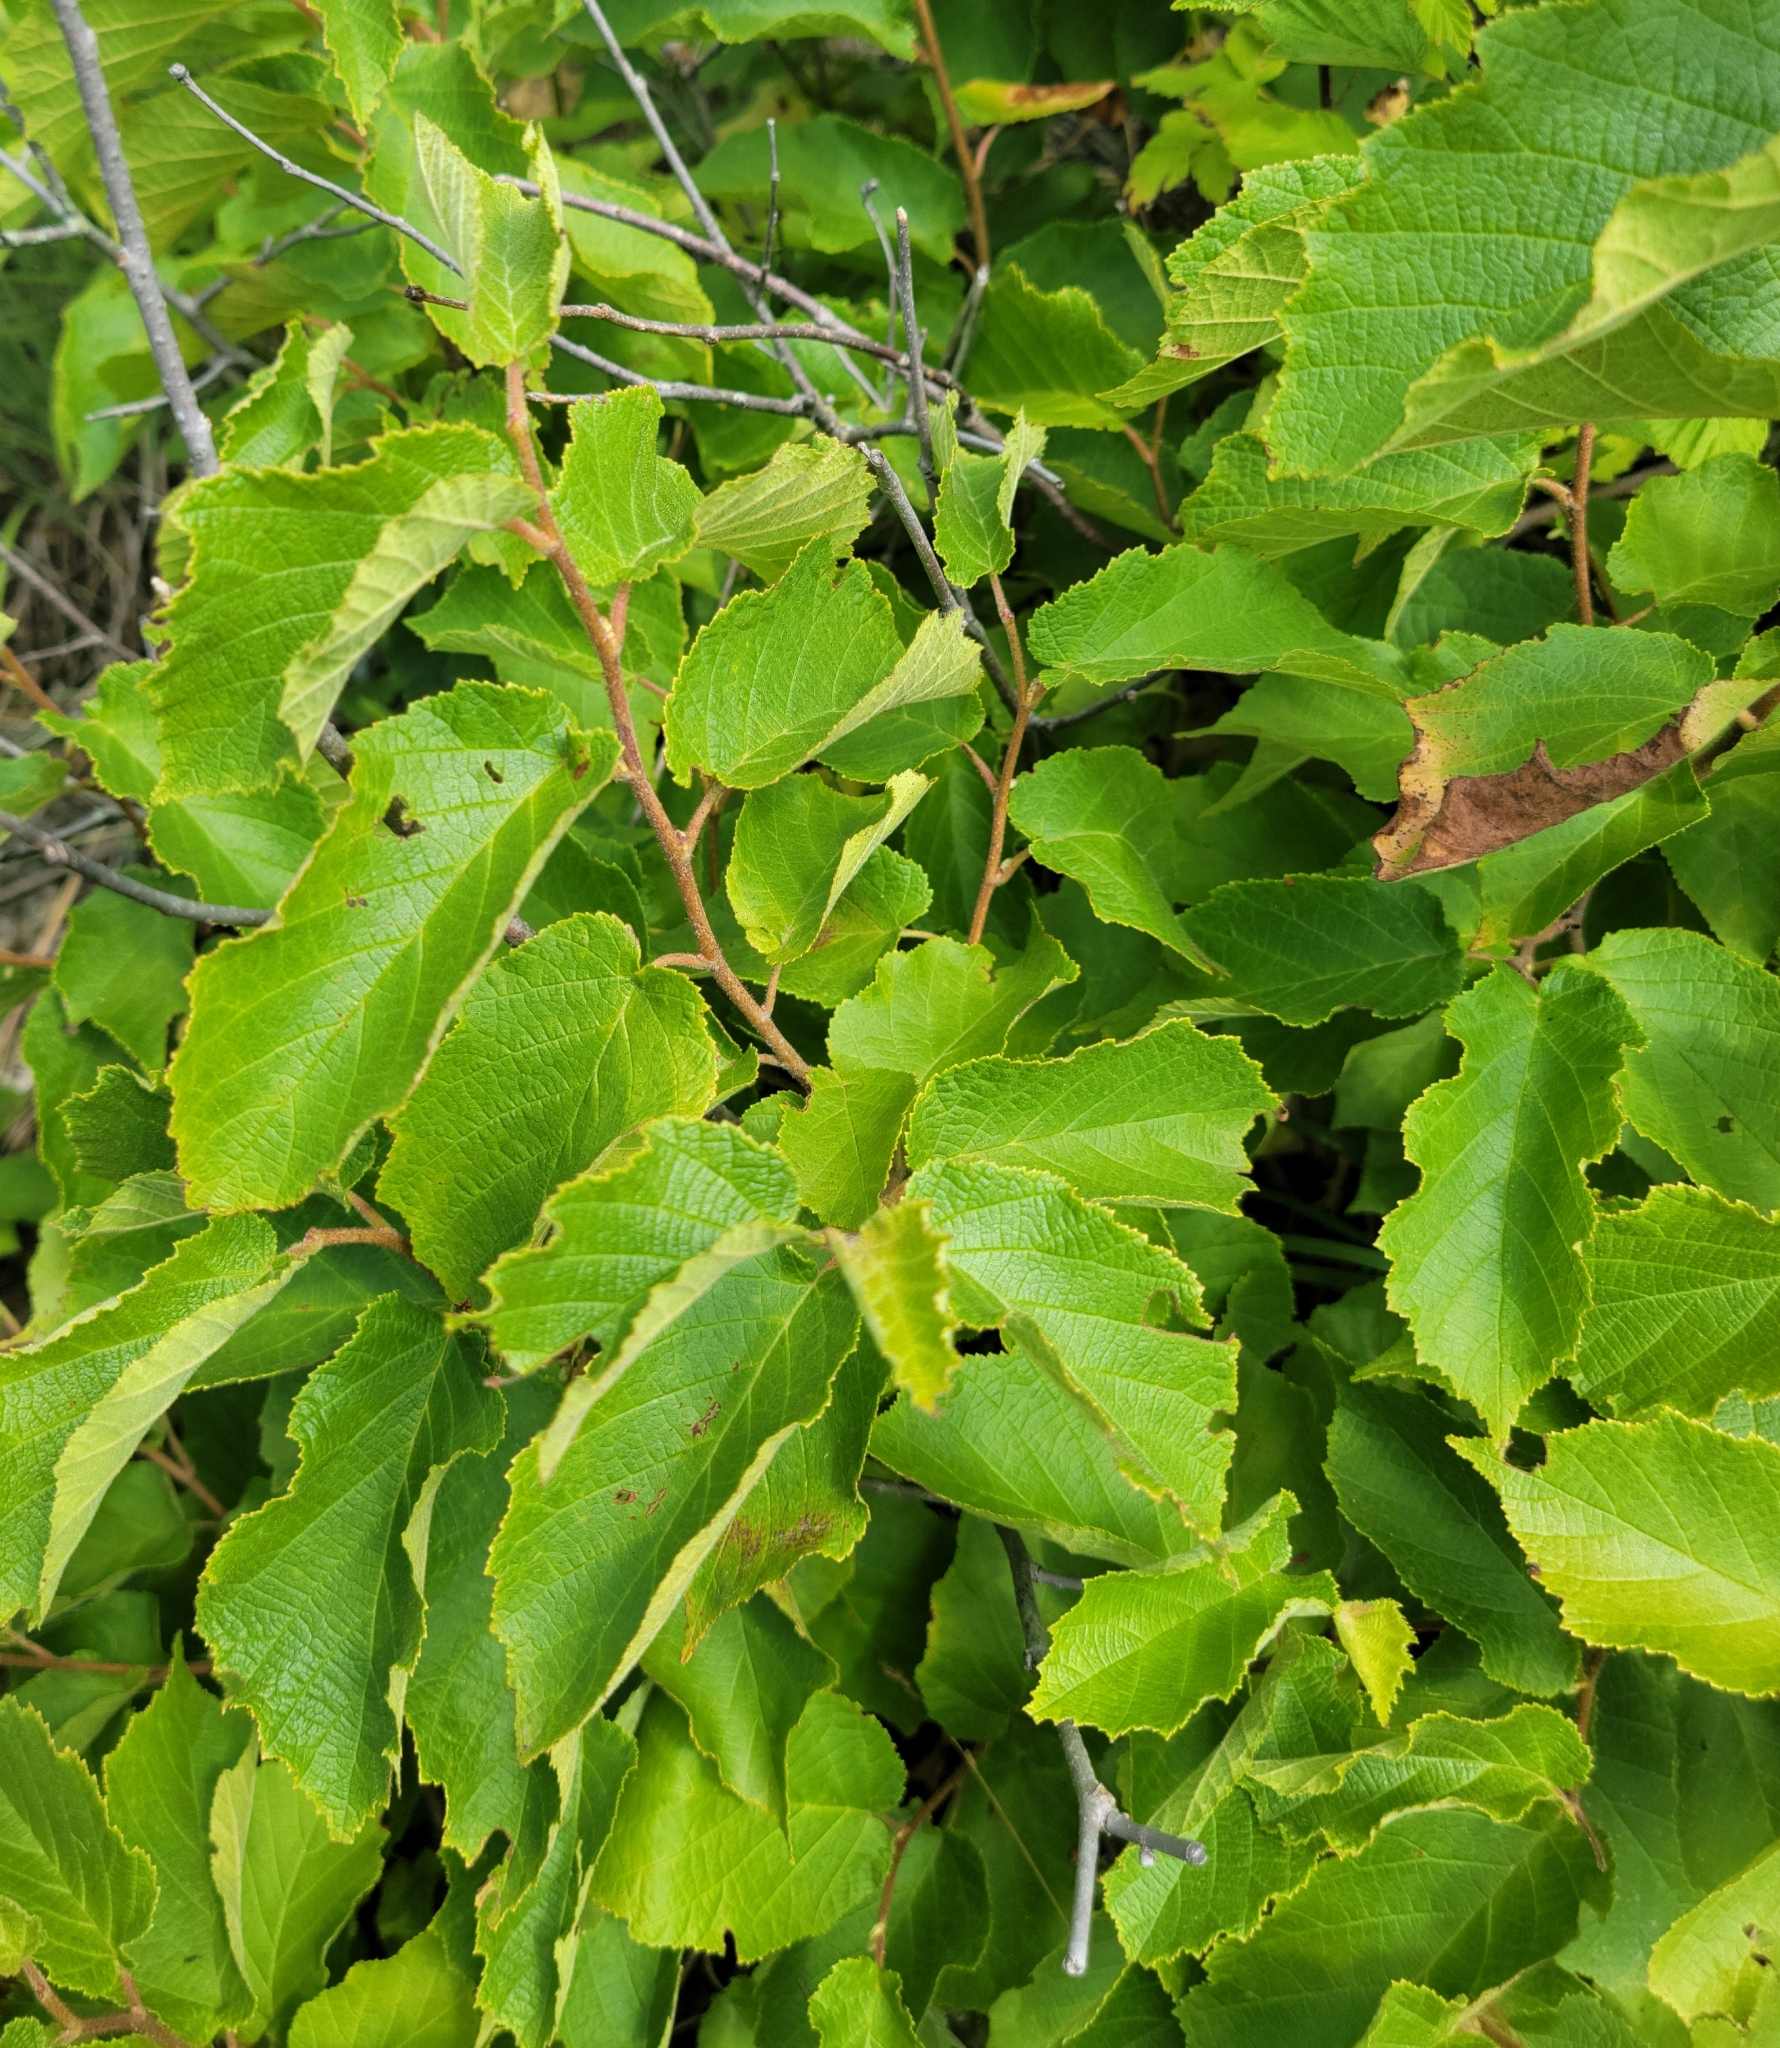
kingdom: Plantae
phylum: Tracheophyta
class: Magnoliopsida
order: Fagales
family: Betulaceae
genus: Corylus
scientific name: Corylus americana
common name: American hazel
